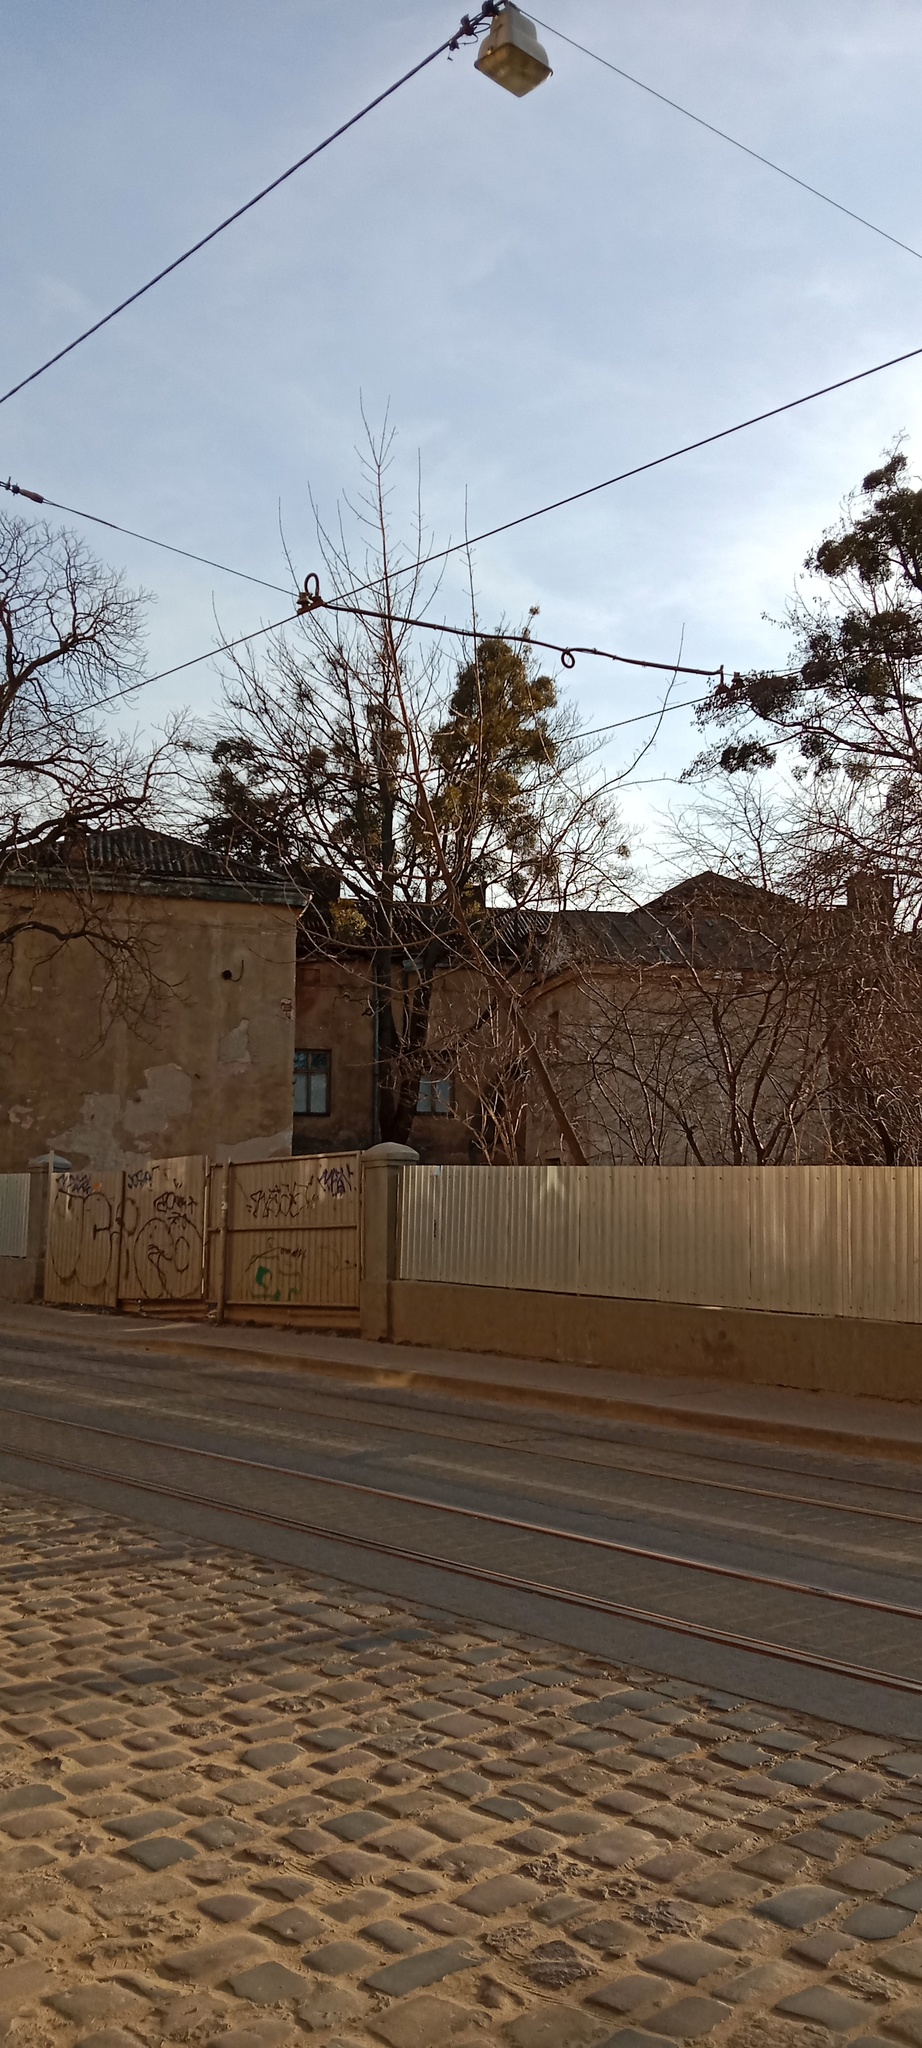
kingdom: Plantae
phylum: Tracheophyta
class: Magnoliopsida
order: Santalales
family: Viscaceae
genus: Viscum
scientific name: Viscum album
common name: Mistletoe
